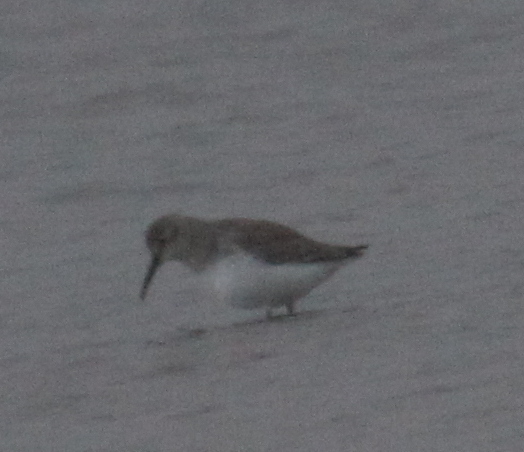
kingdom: Animalia
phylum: Chordata
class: Aves
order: Charadriiformes
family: Scolopacidae
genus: Calidris
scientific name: Calidris alpina
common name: Dunlin
